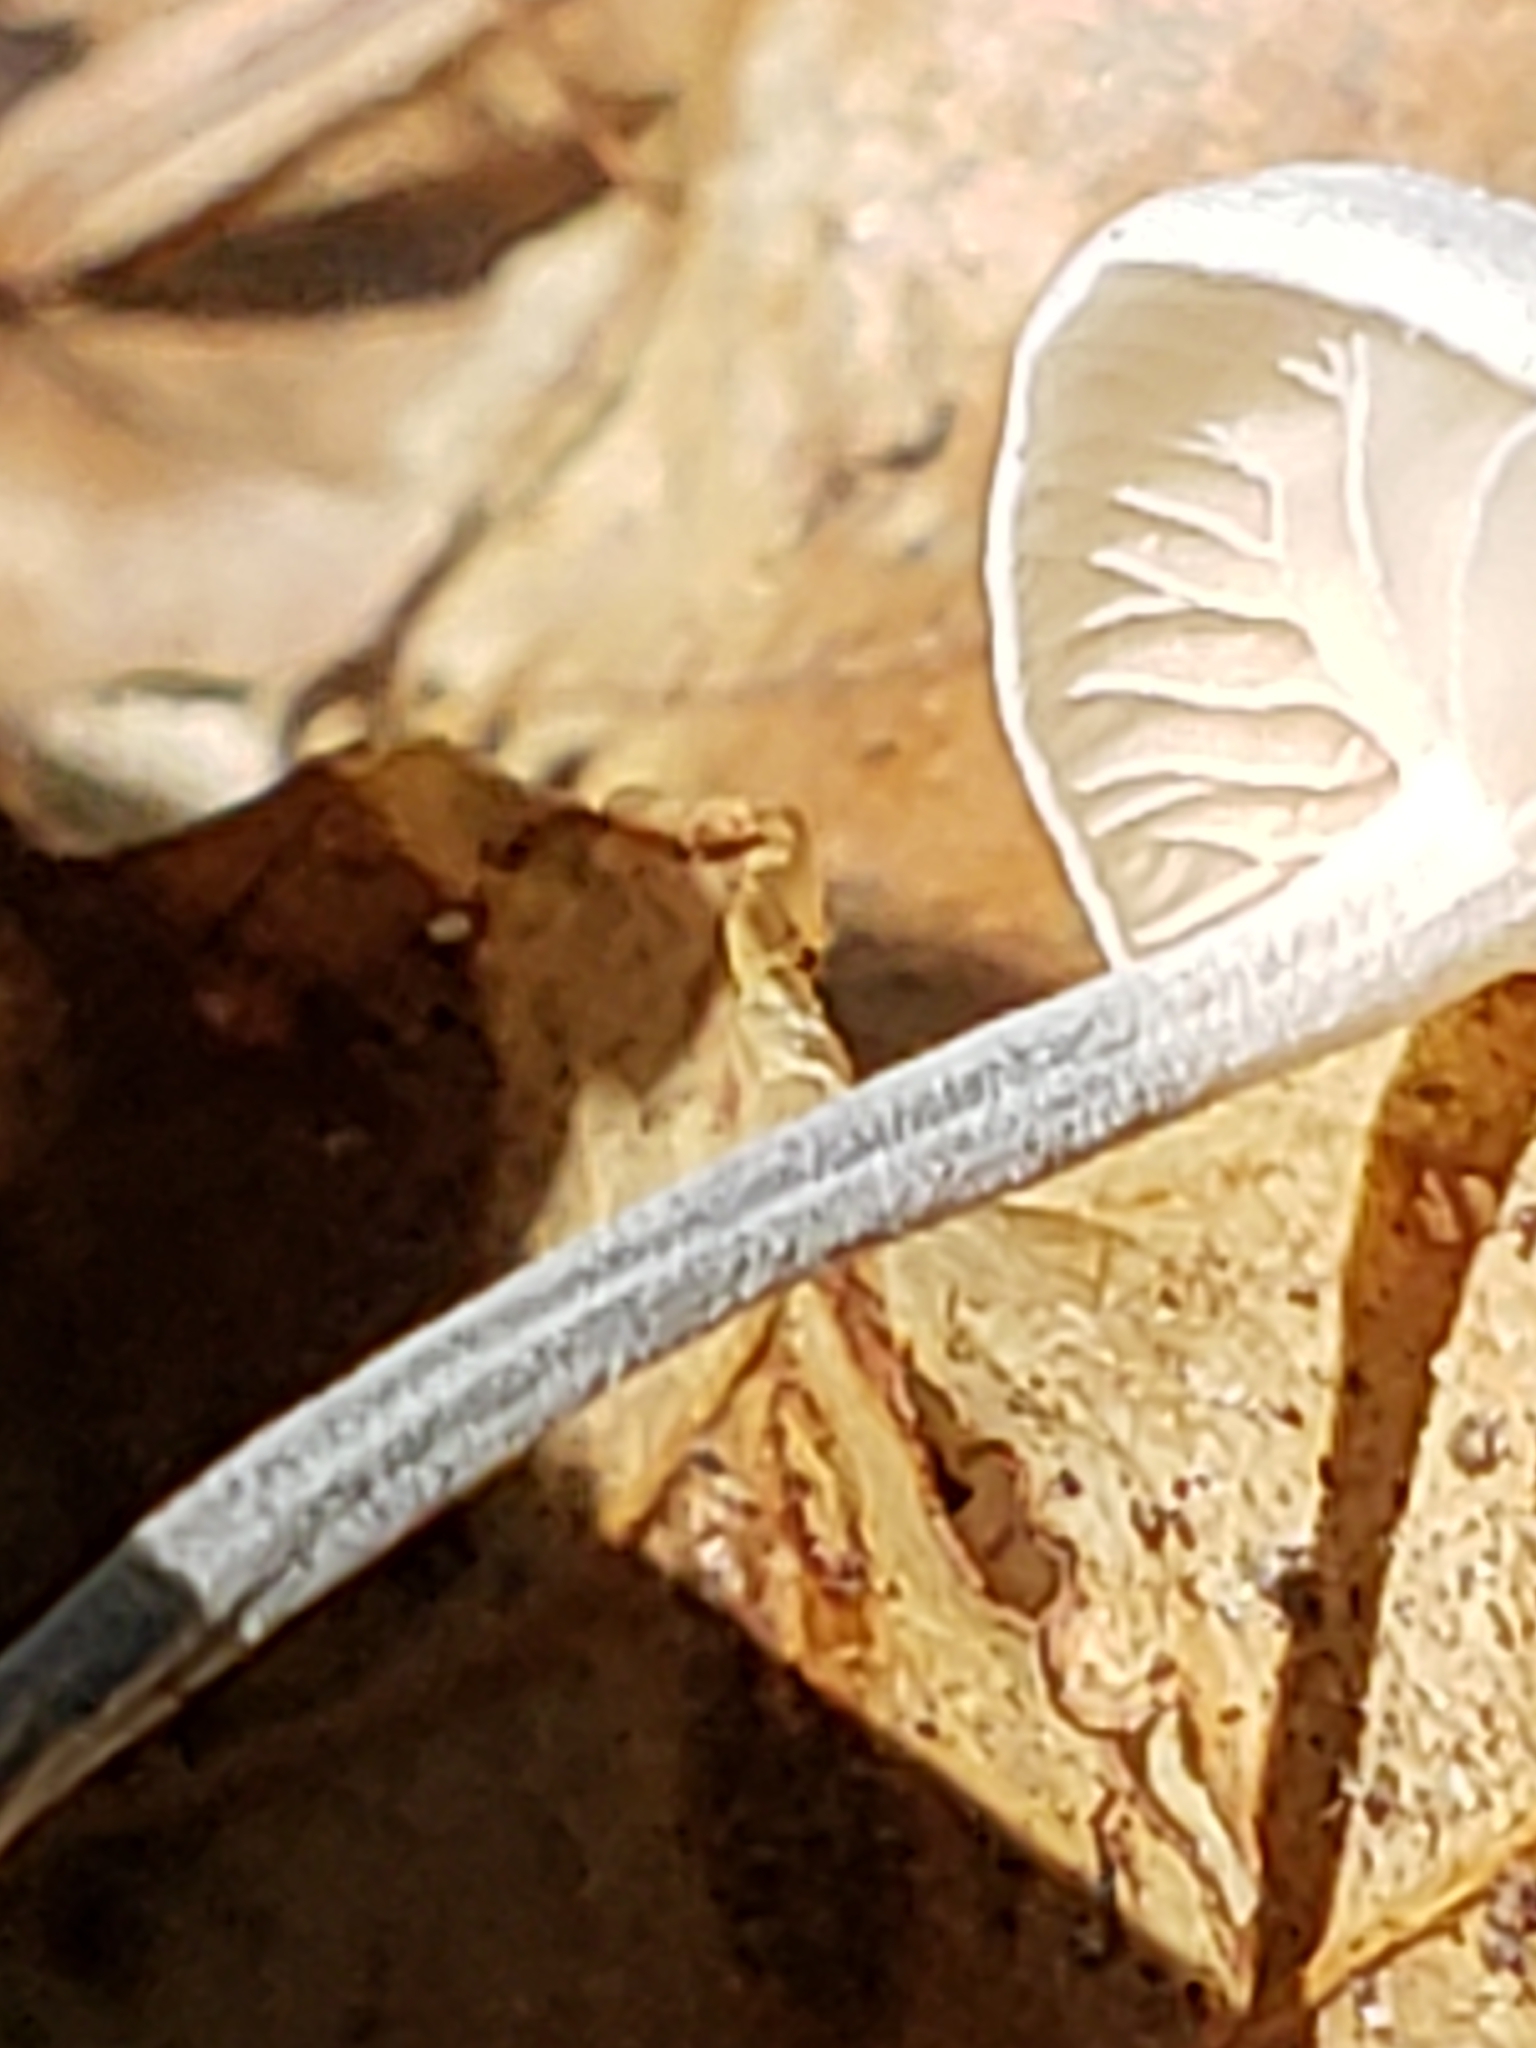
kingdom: Fungi
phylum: Basidiomycota
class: Agaricomycetes
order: Agaricales
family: Marasmiaceae
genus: Tetrapyrgos
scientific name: Tetrapyrgos nigripes
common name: Black-stalked marasmius
